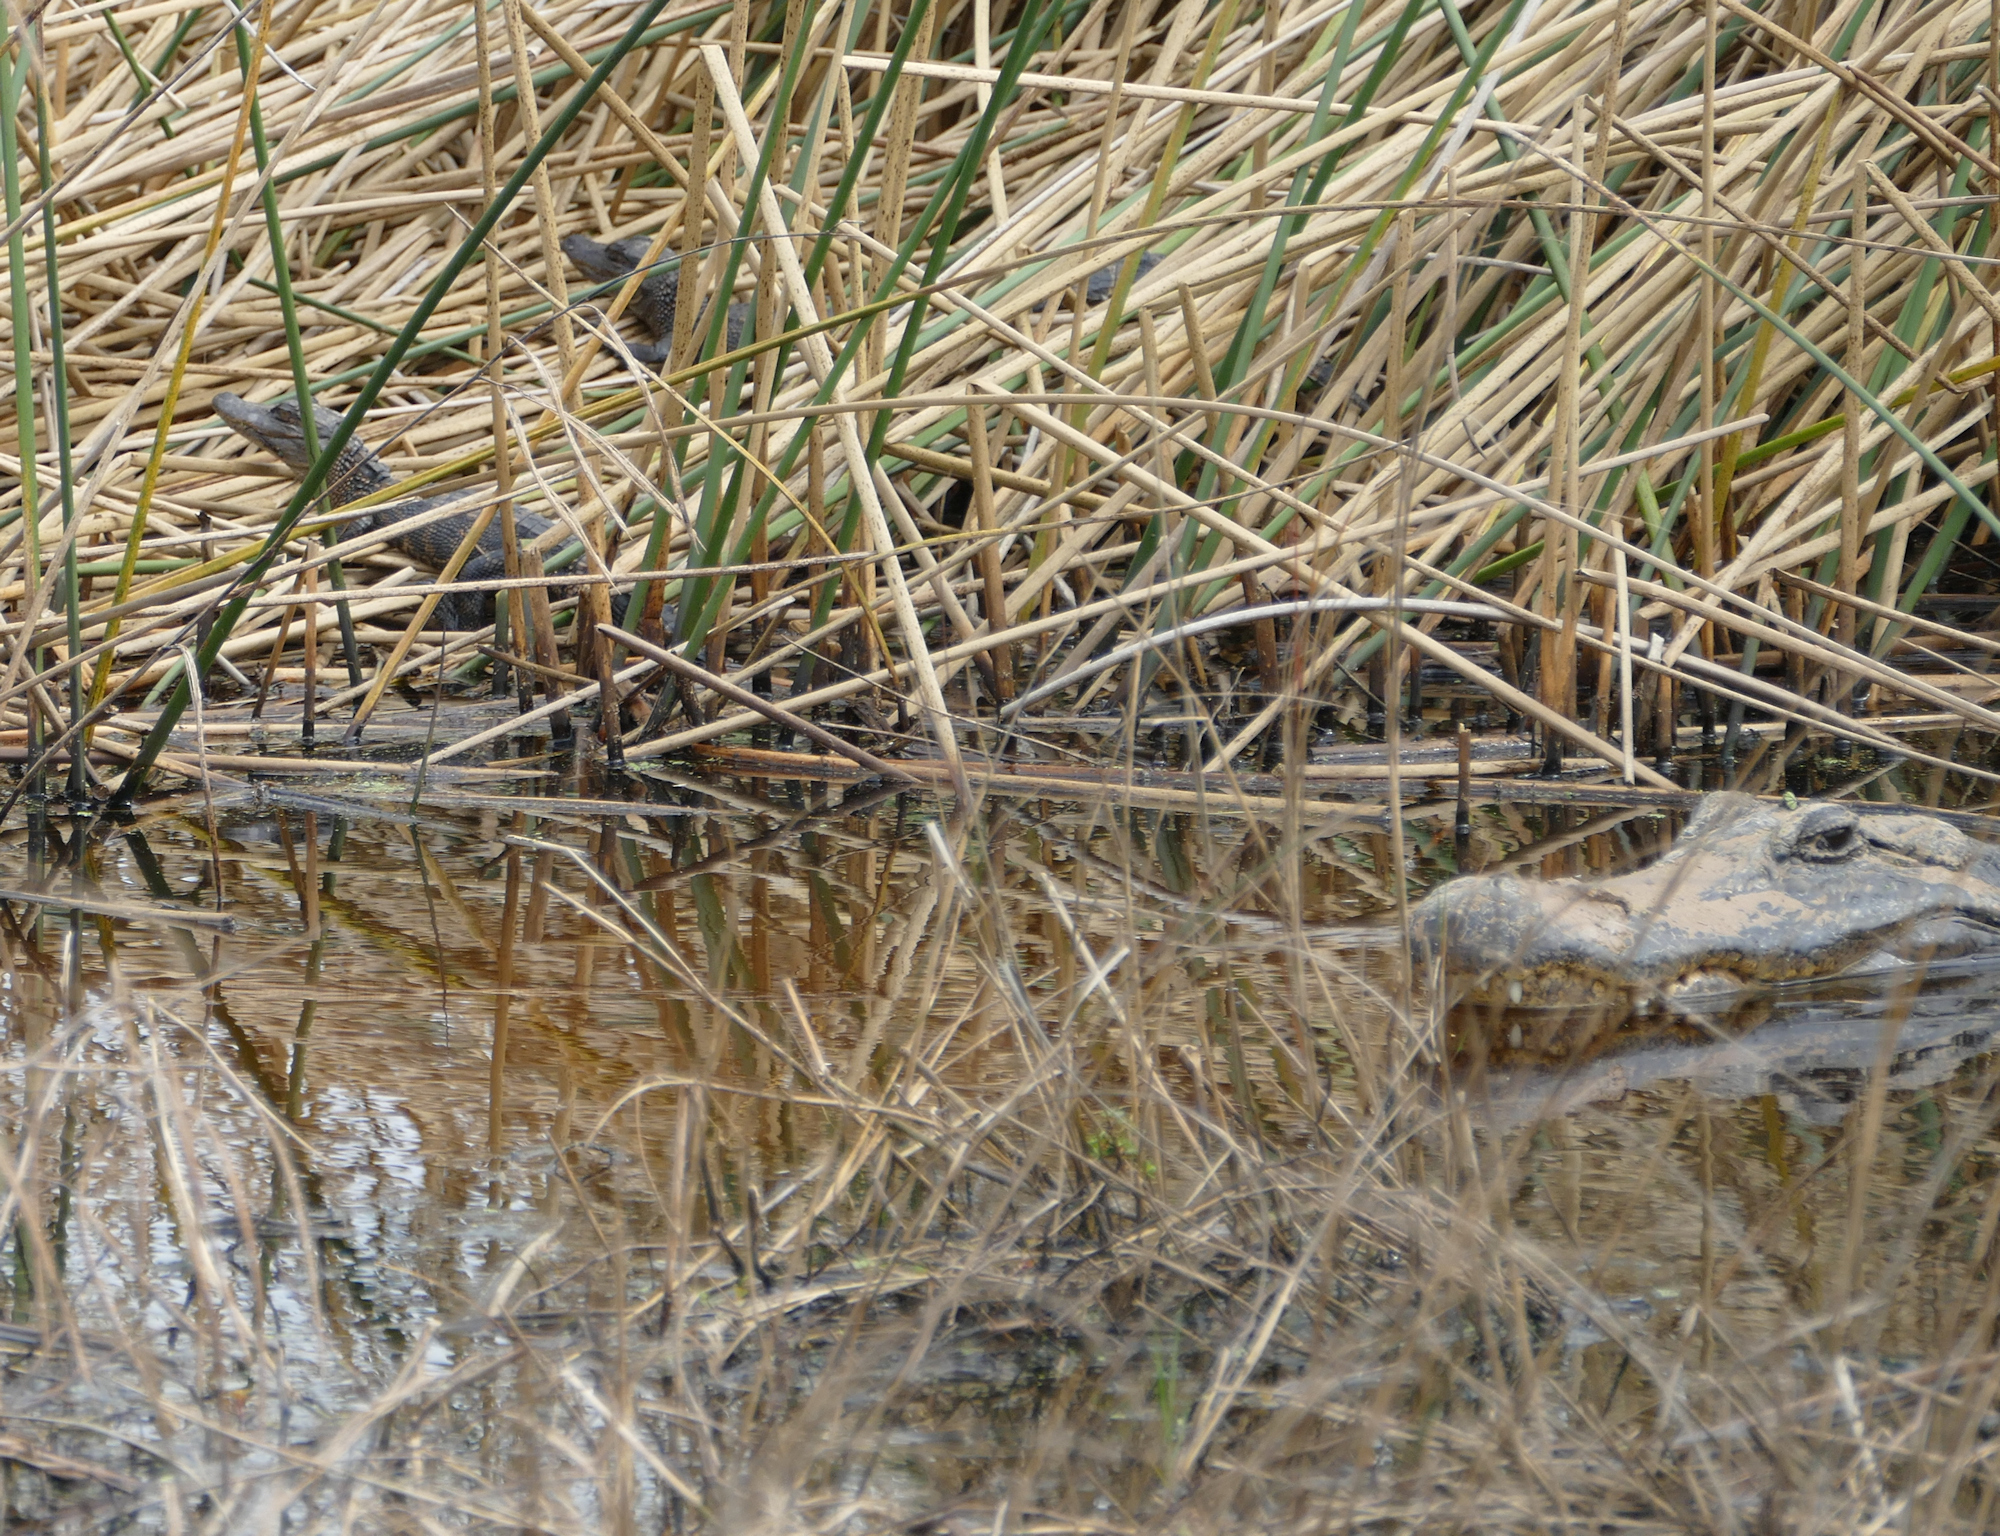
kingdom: Animalia
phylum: Chordata
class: Crocodylia
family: Alligatoridae
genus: Alligator
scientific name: Alligator mississippiensis
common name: American alligator
